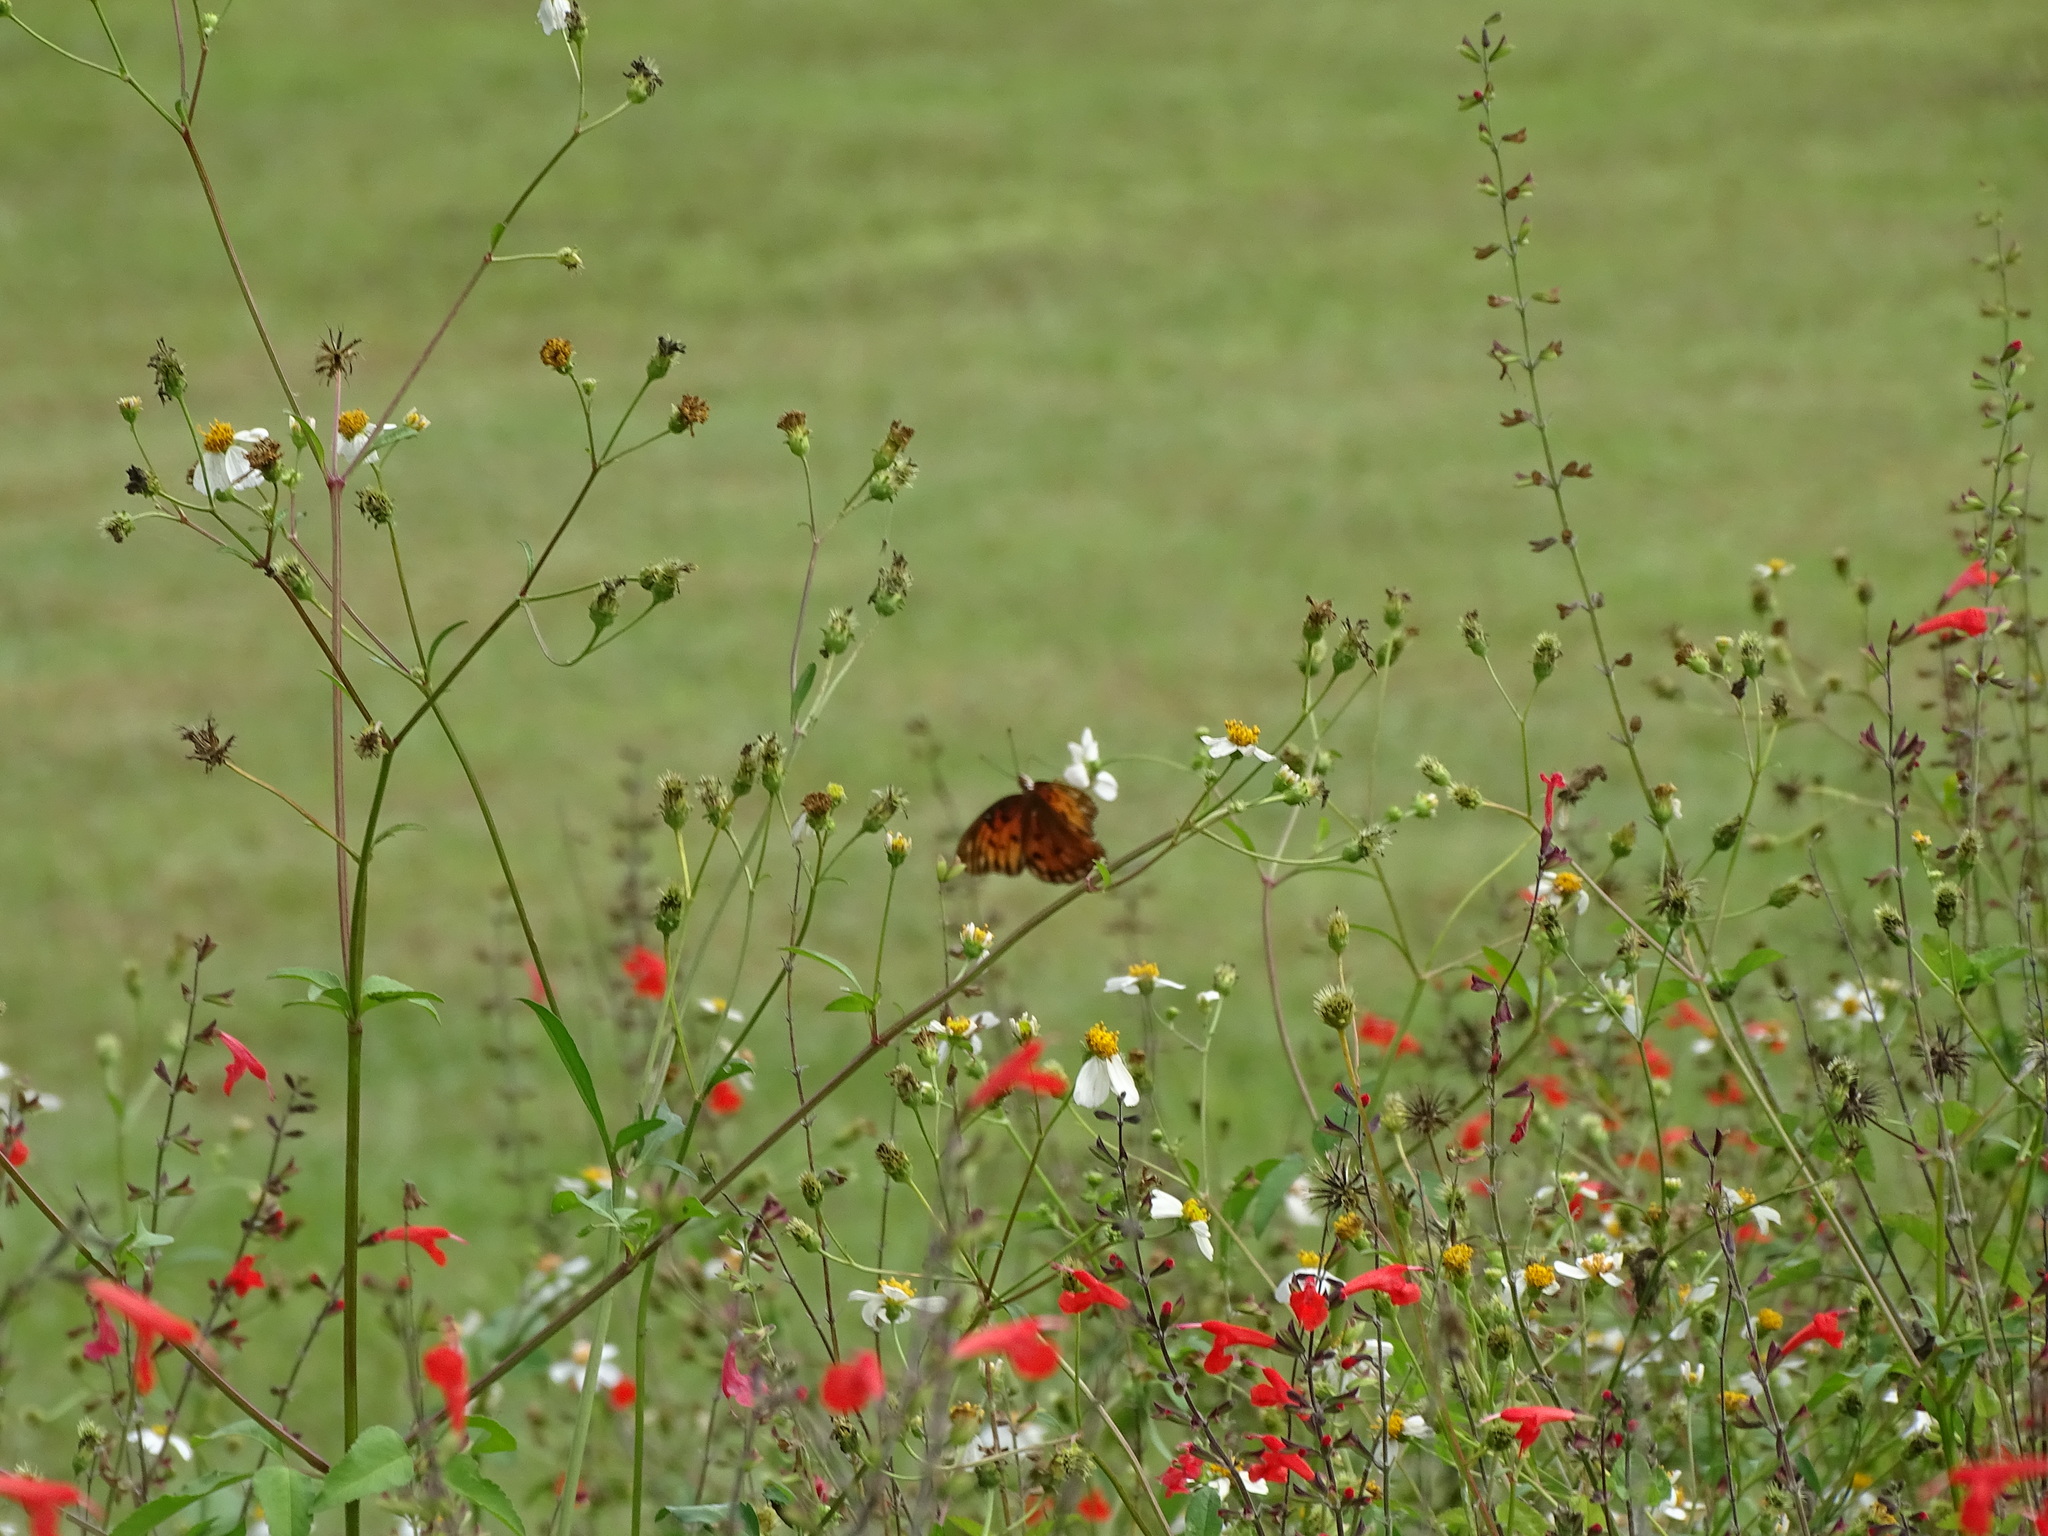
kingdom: Animalia
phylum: Arthropoda
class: Insecta
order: Lepidoptera
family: Nymphalidae
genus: Dione
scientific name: Dione vanillae
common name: Gulf fritillary
